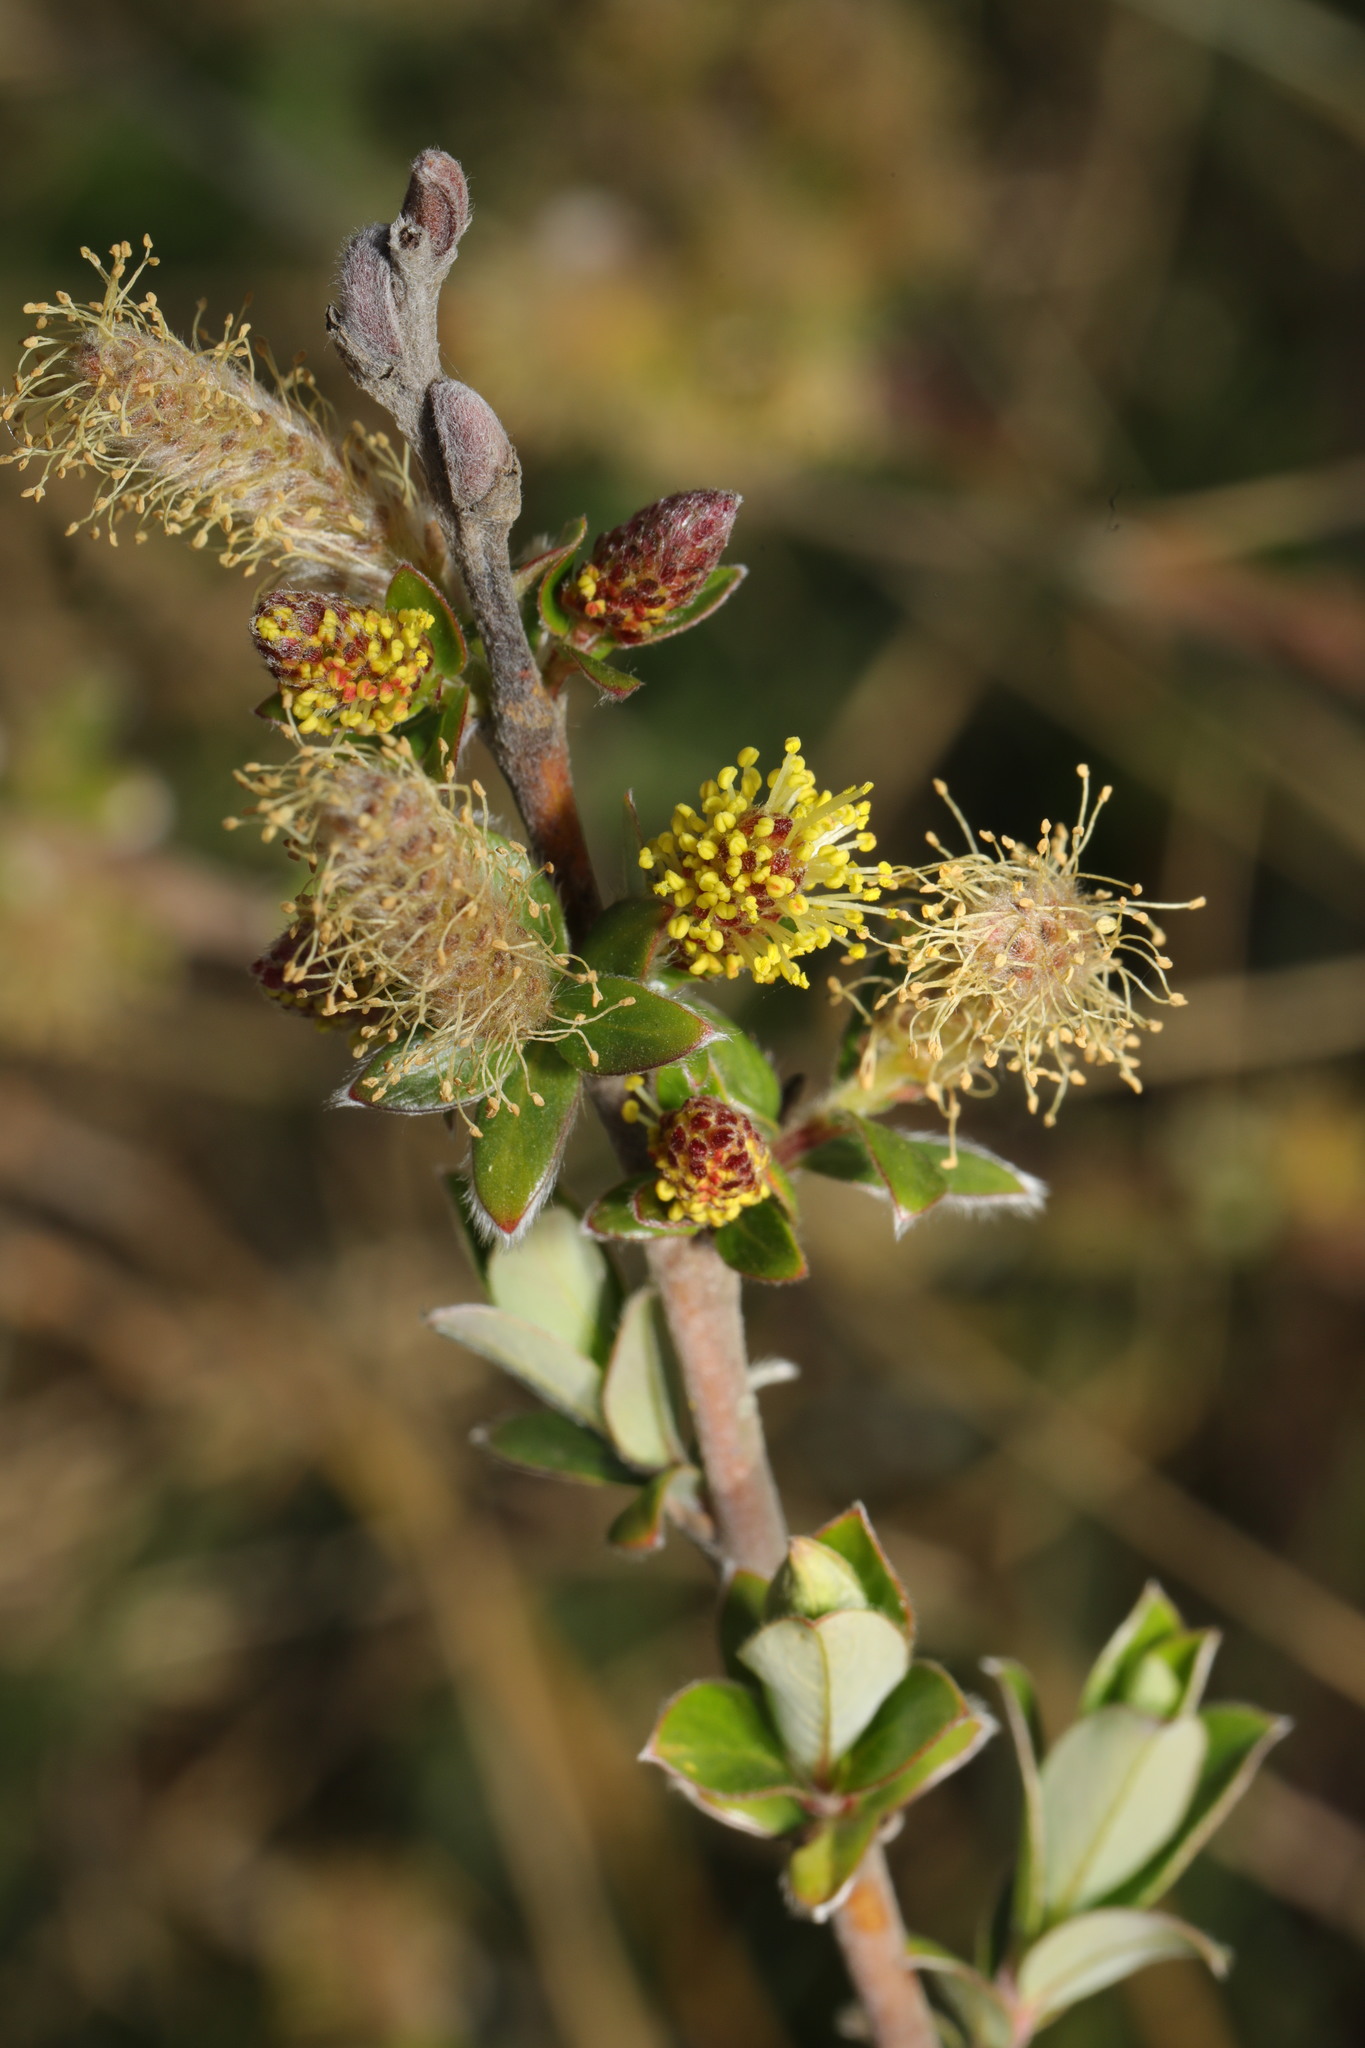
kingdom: Plantae
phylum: Tracheophyta
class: Magnoliopsida
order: Malpighiales
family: Salicaceae
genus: Salix
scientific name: Salix repens
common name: Creeping willow
